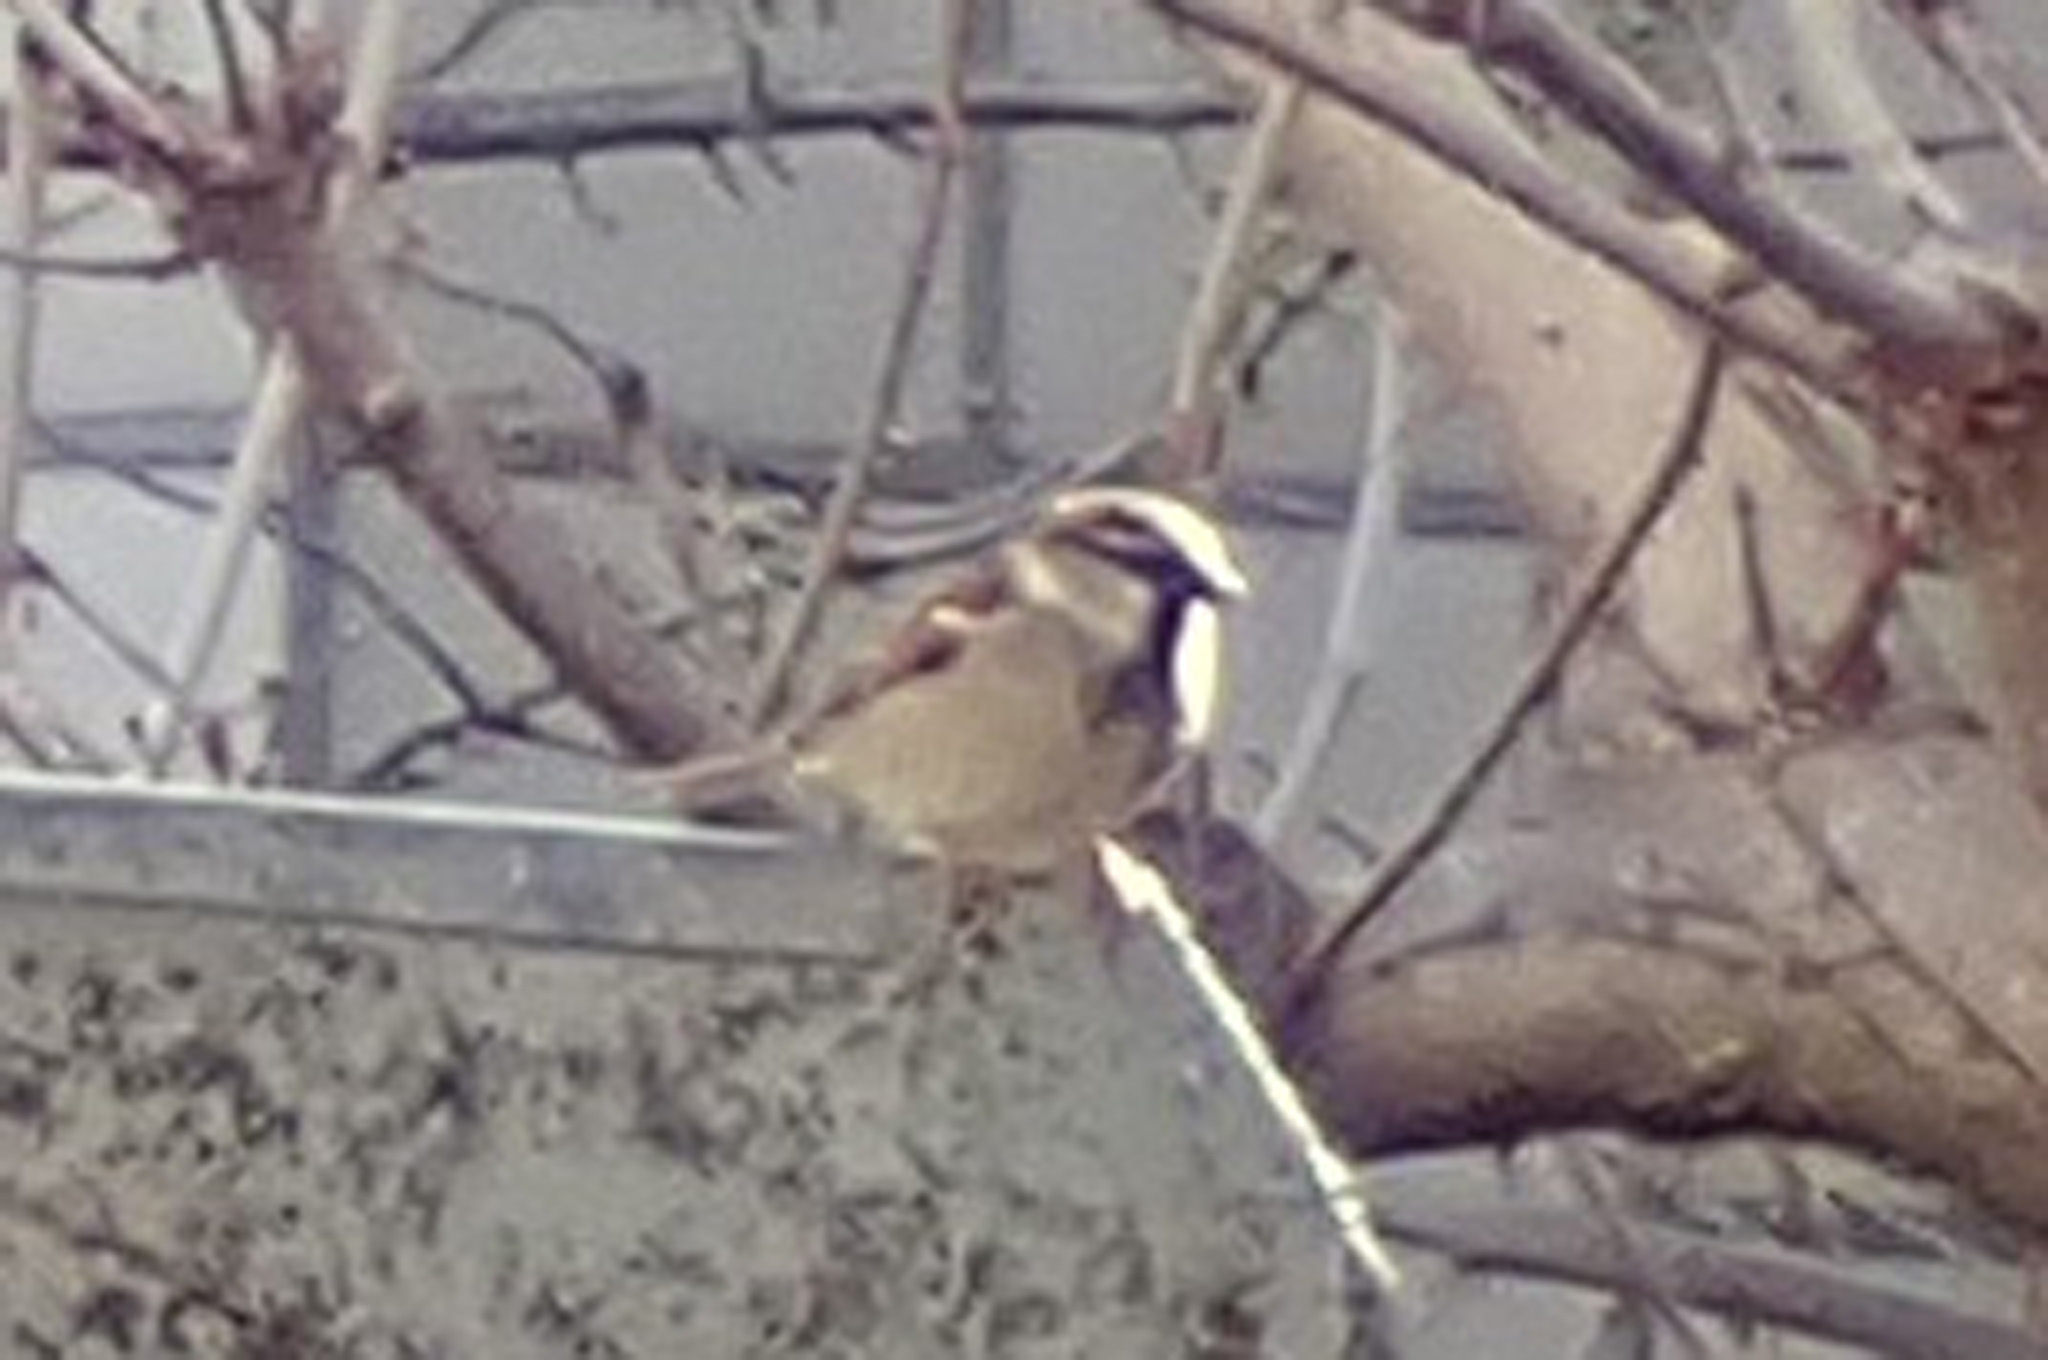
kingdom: Animalia
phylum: Chordata
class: Aves
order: Passeriformes
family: Passeridae
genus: Passer
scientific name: Passer domesticus
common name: House sparrow
